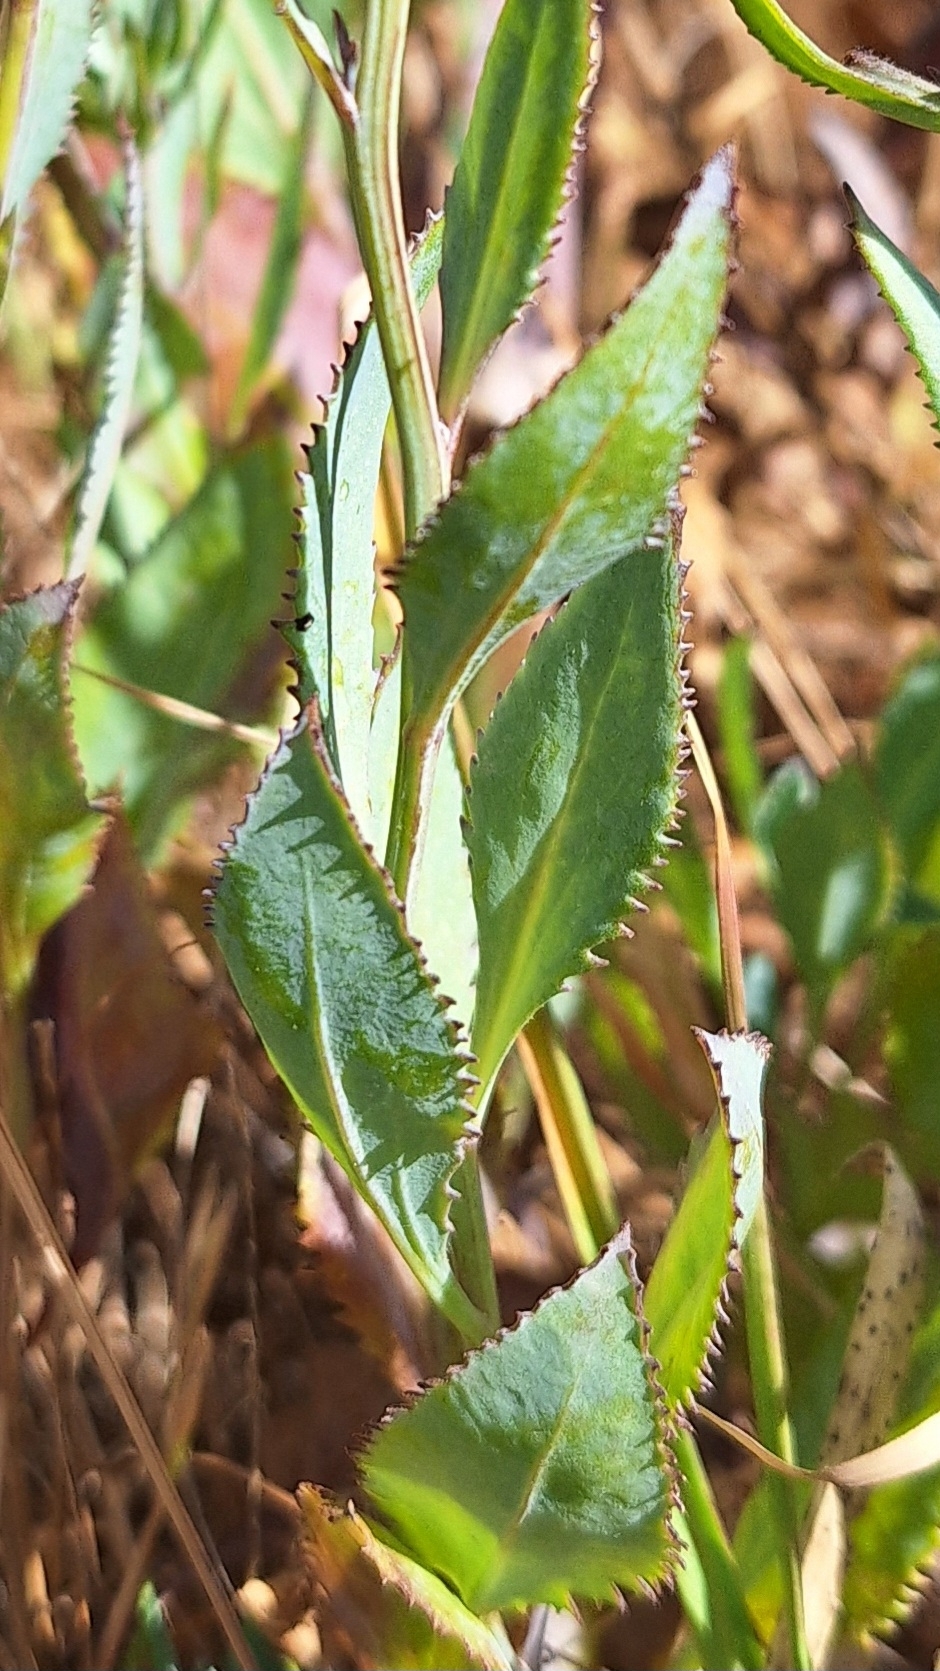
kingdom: Plantae
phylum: Tracheophyta
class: Magnoliopsida
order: Asterales
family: Goodeniaceae
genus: Goodenia
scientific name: Goodenia albiflora
